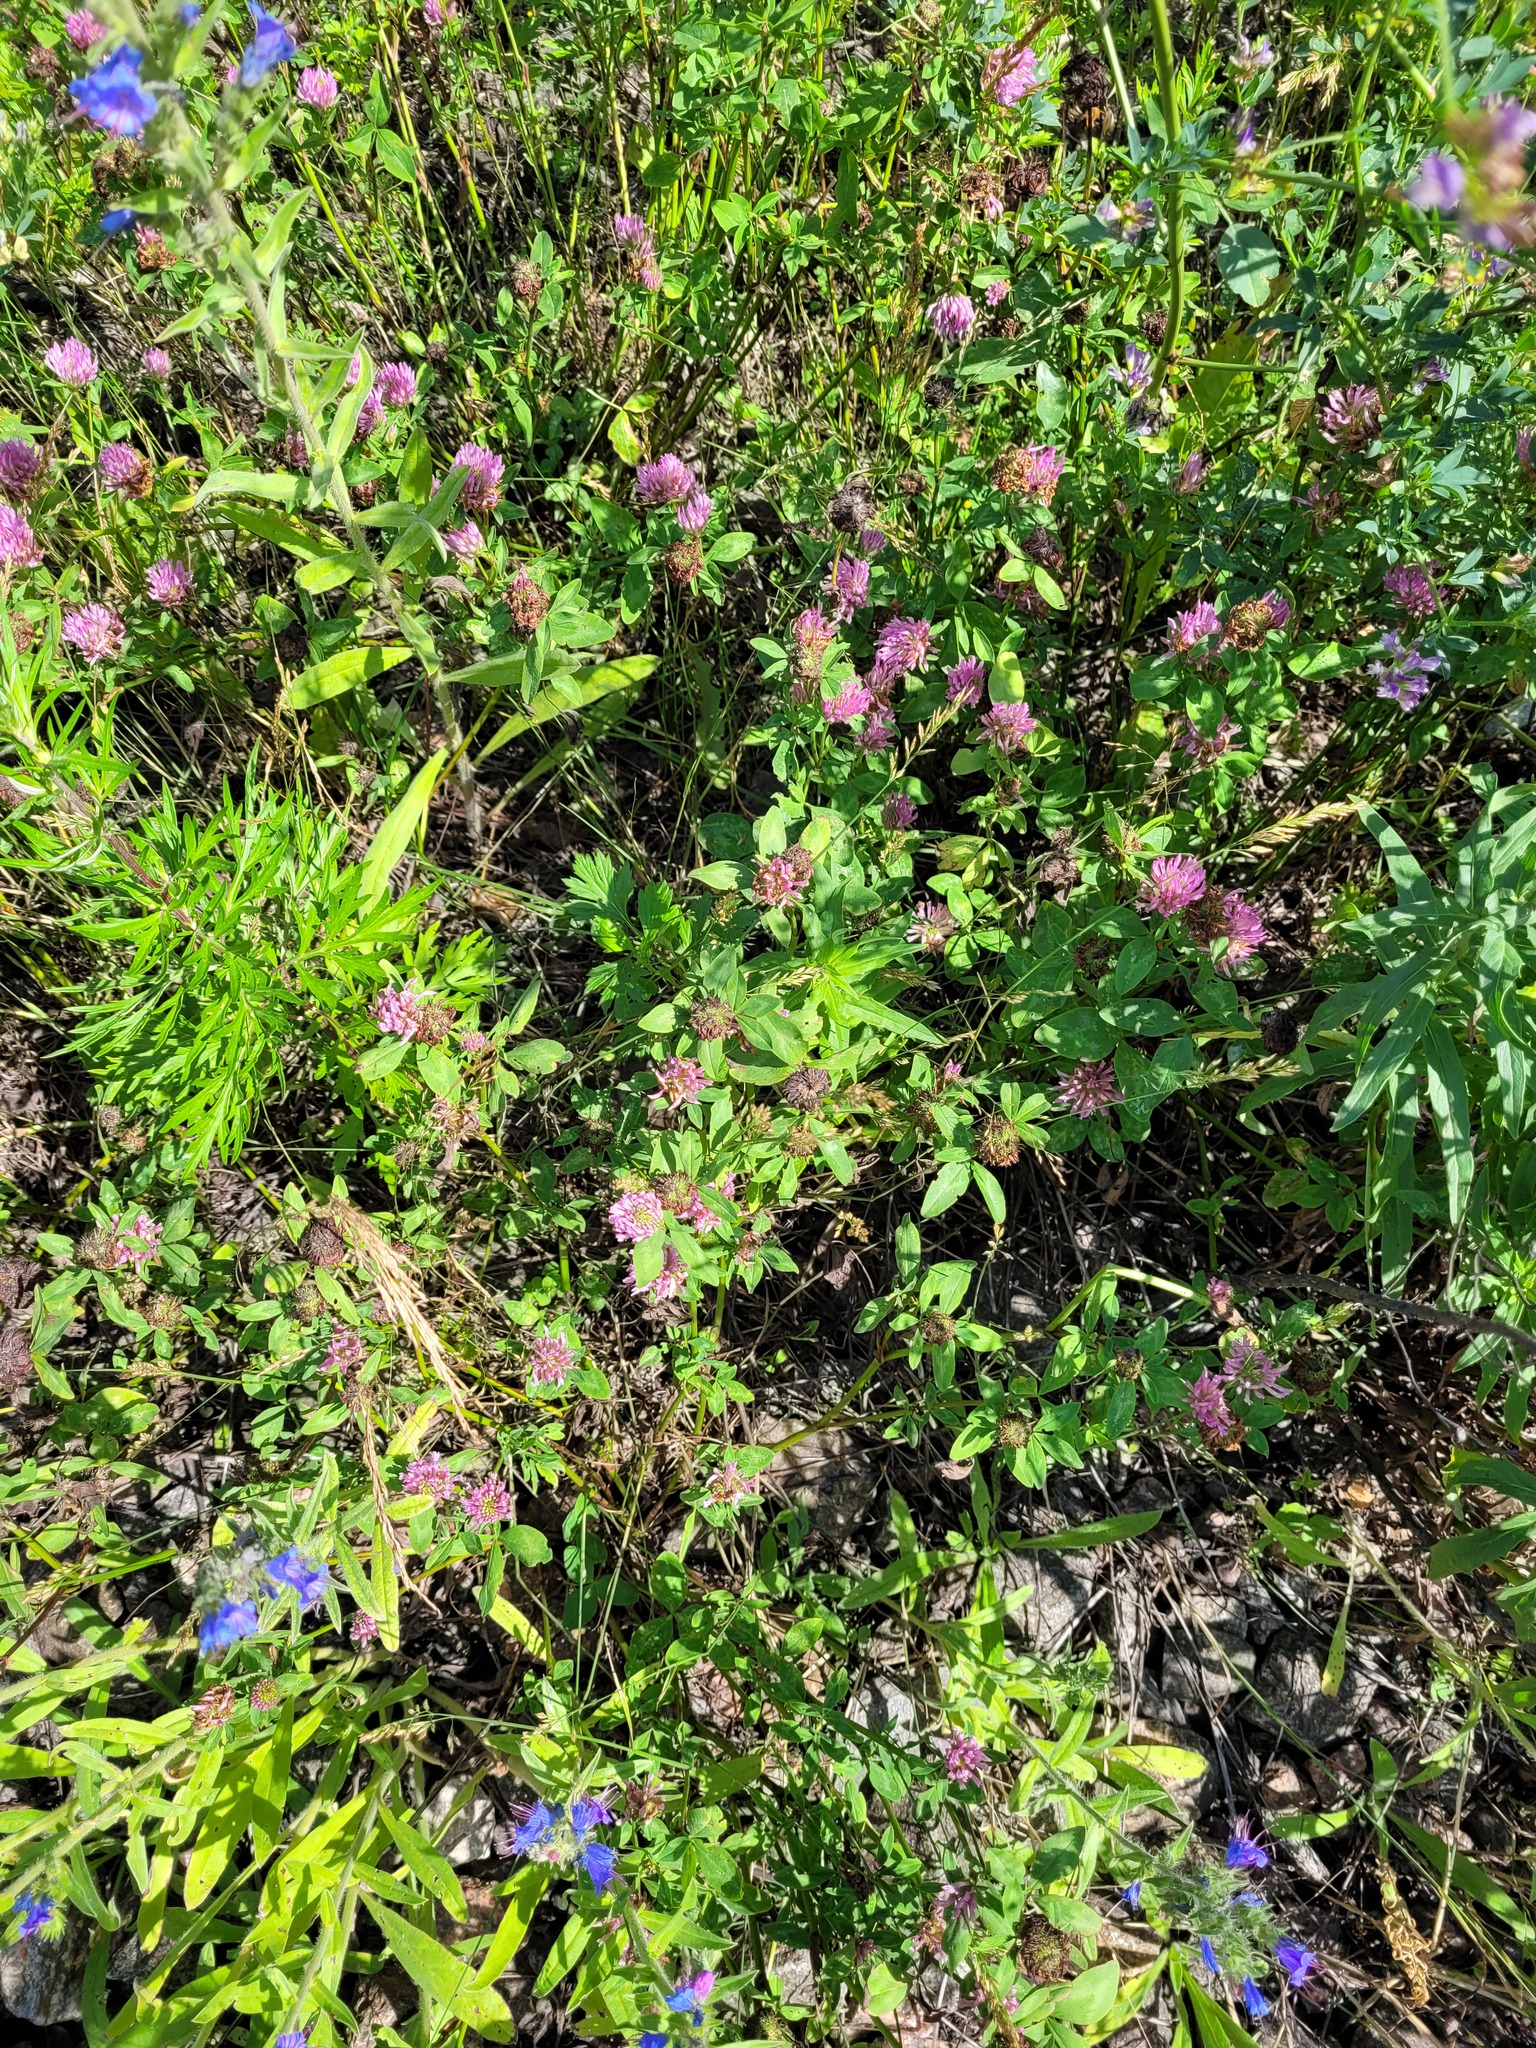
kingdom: Plantae
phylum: Tracheophyta
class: Magnoliopsida
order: Fabales
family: Fabaceae
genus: Trifolium
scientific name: Trifolium pratense
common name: Red clover
